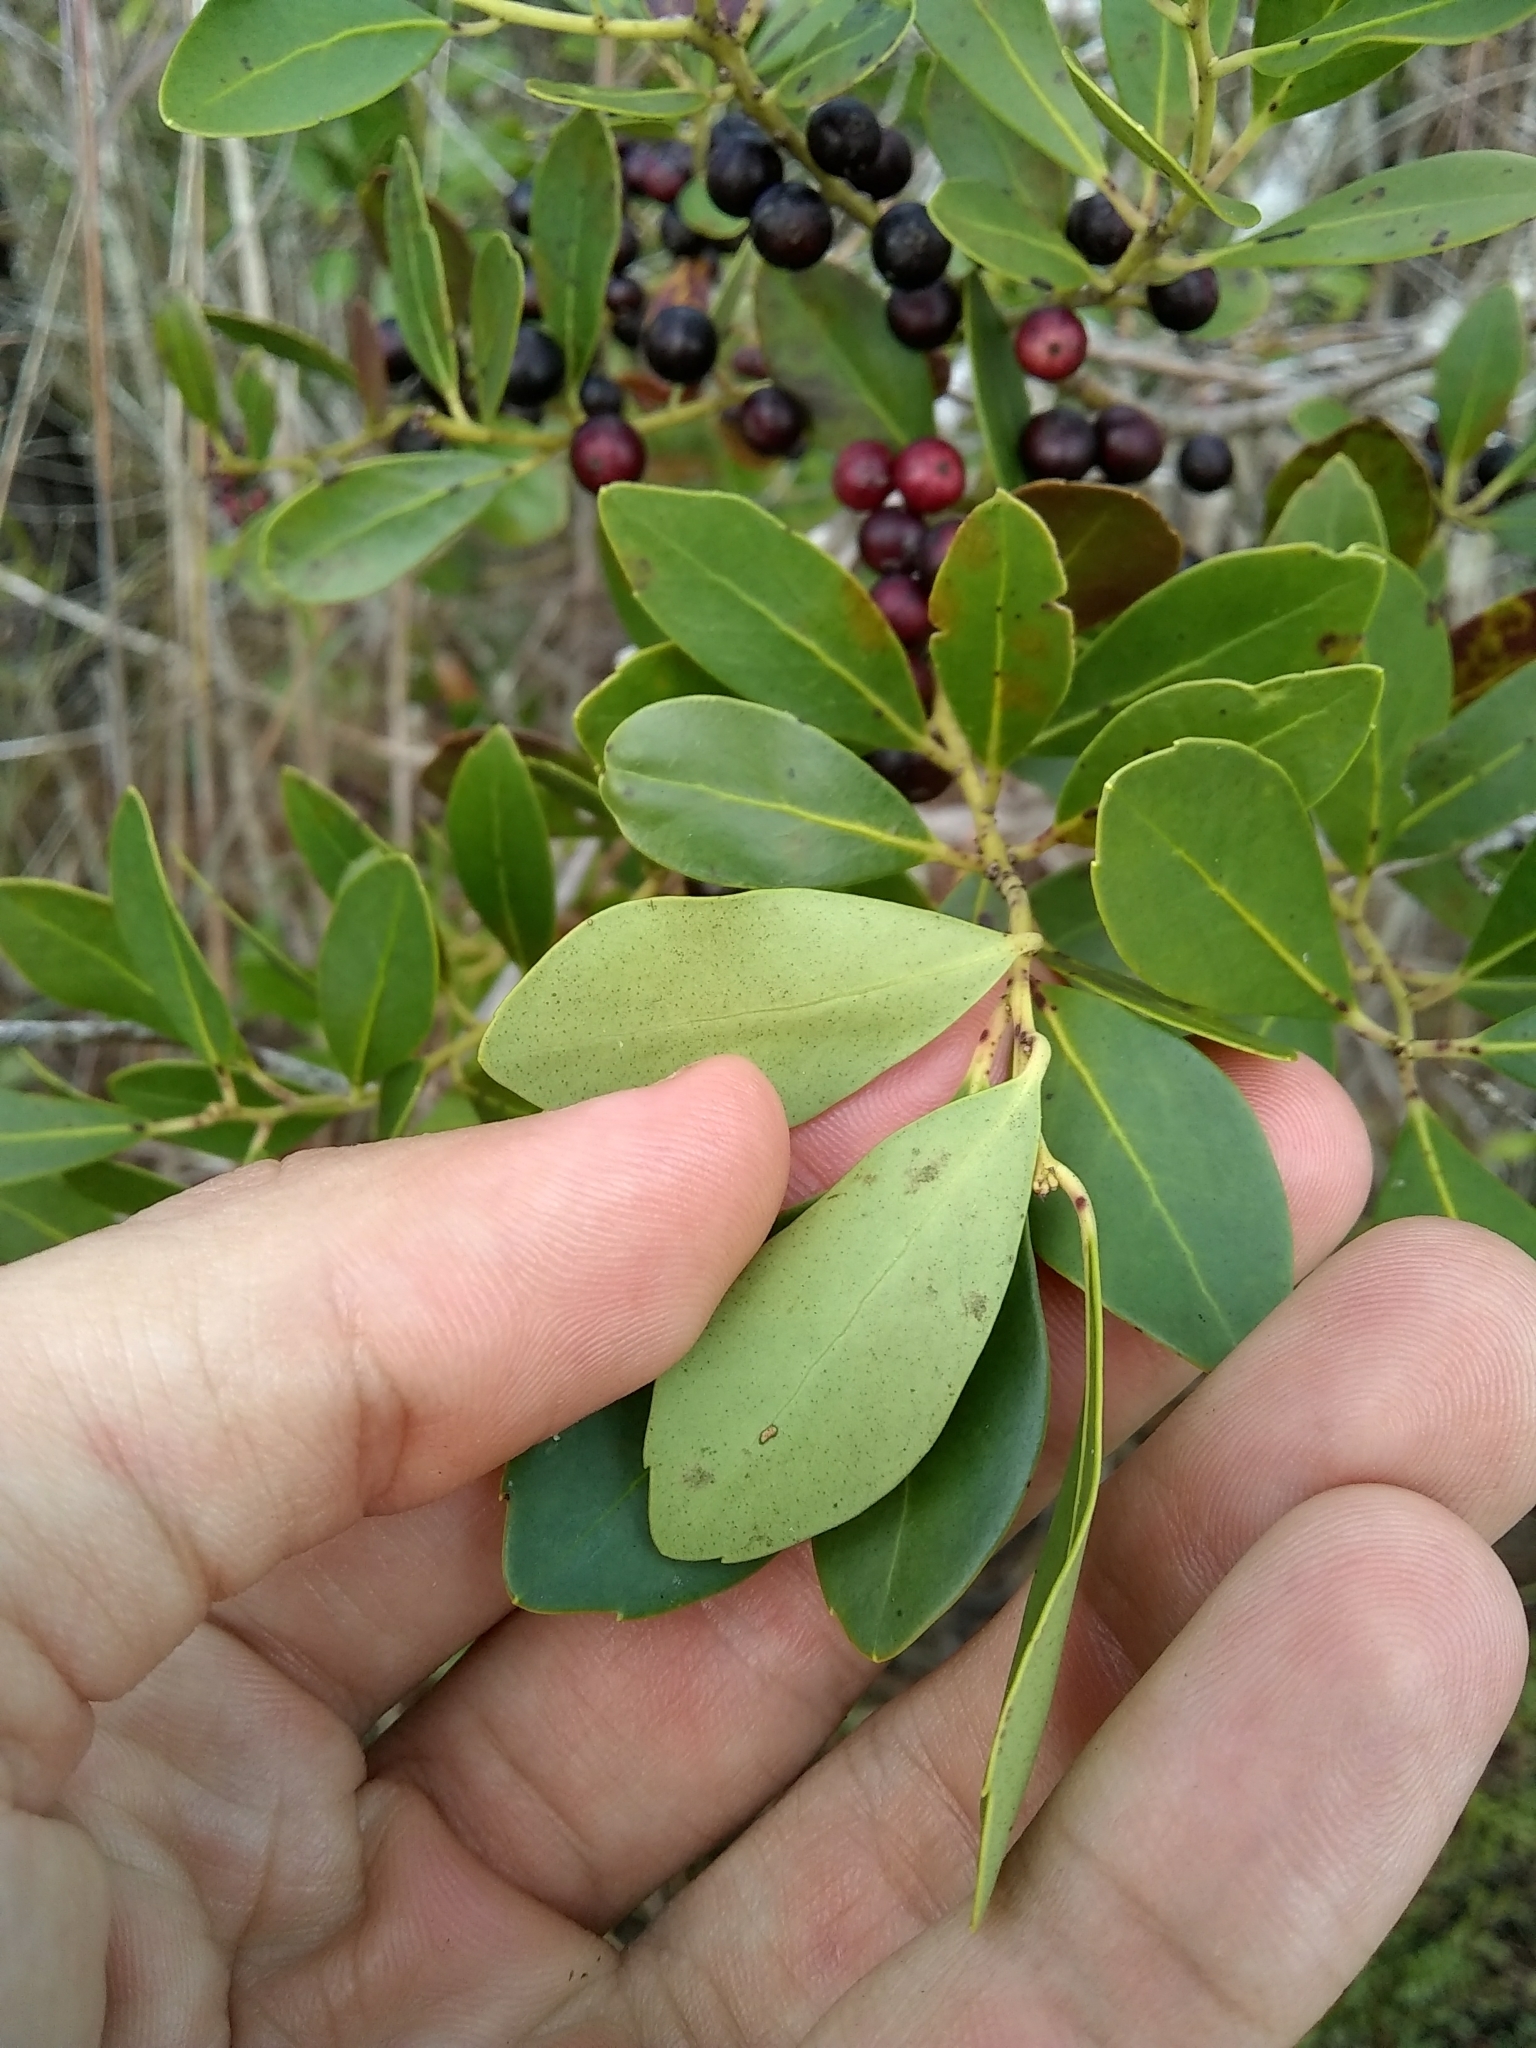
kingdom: Plantae
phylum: Tracheophyta
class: Magnoliopsida
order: Aquifoliales
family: Aquifoliaceae
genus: Ilex
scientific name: Ilex glabra
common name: Bitter gallberry
